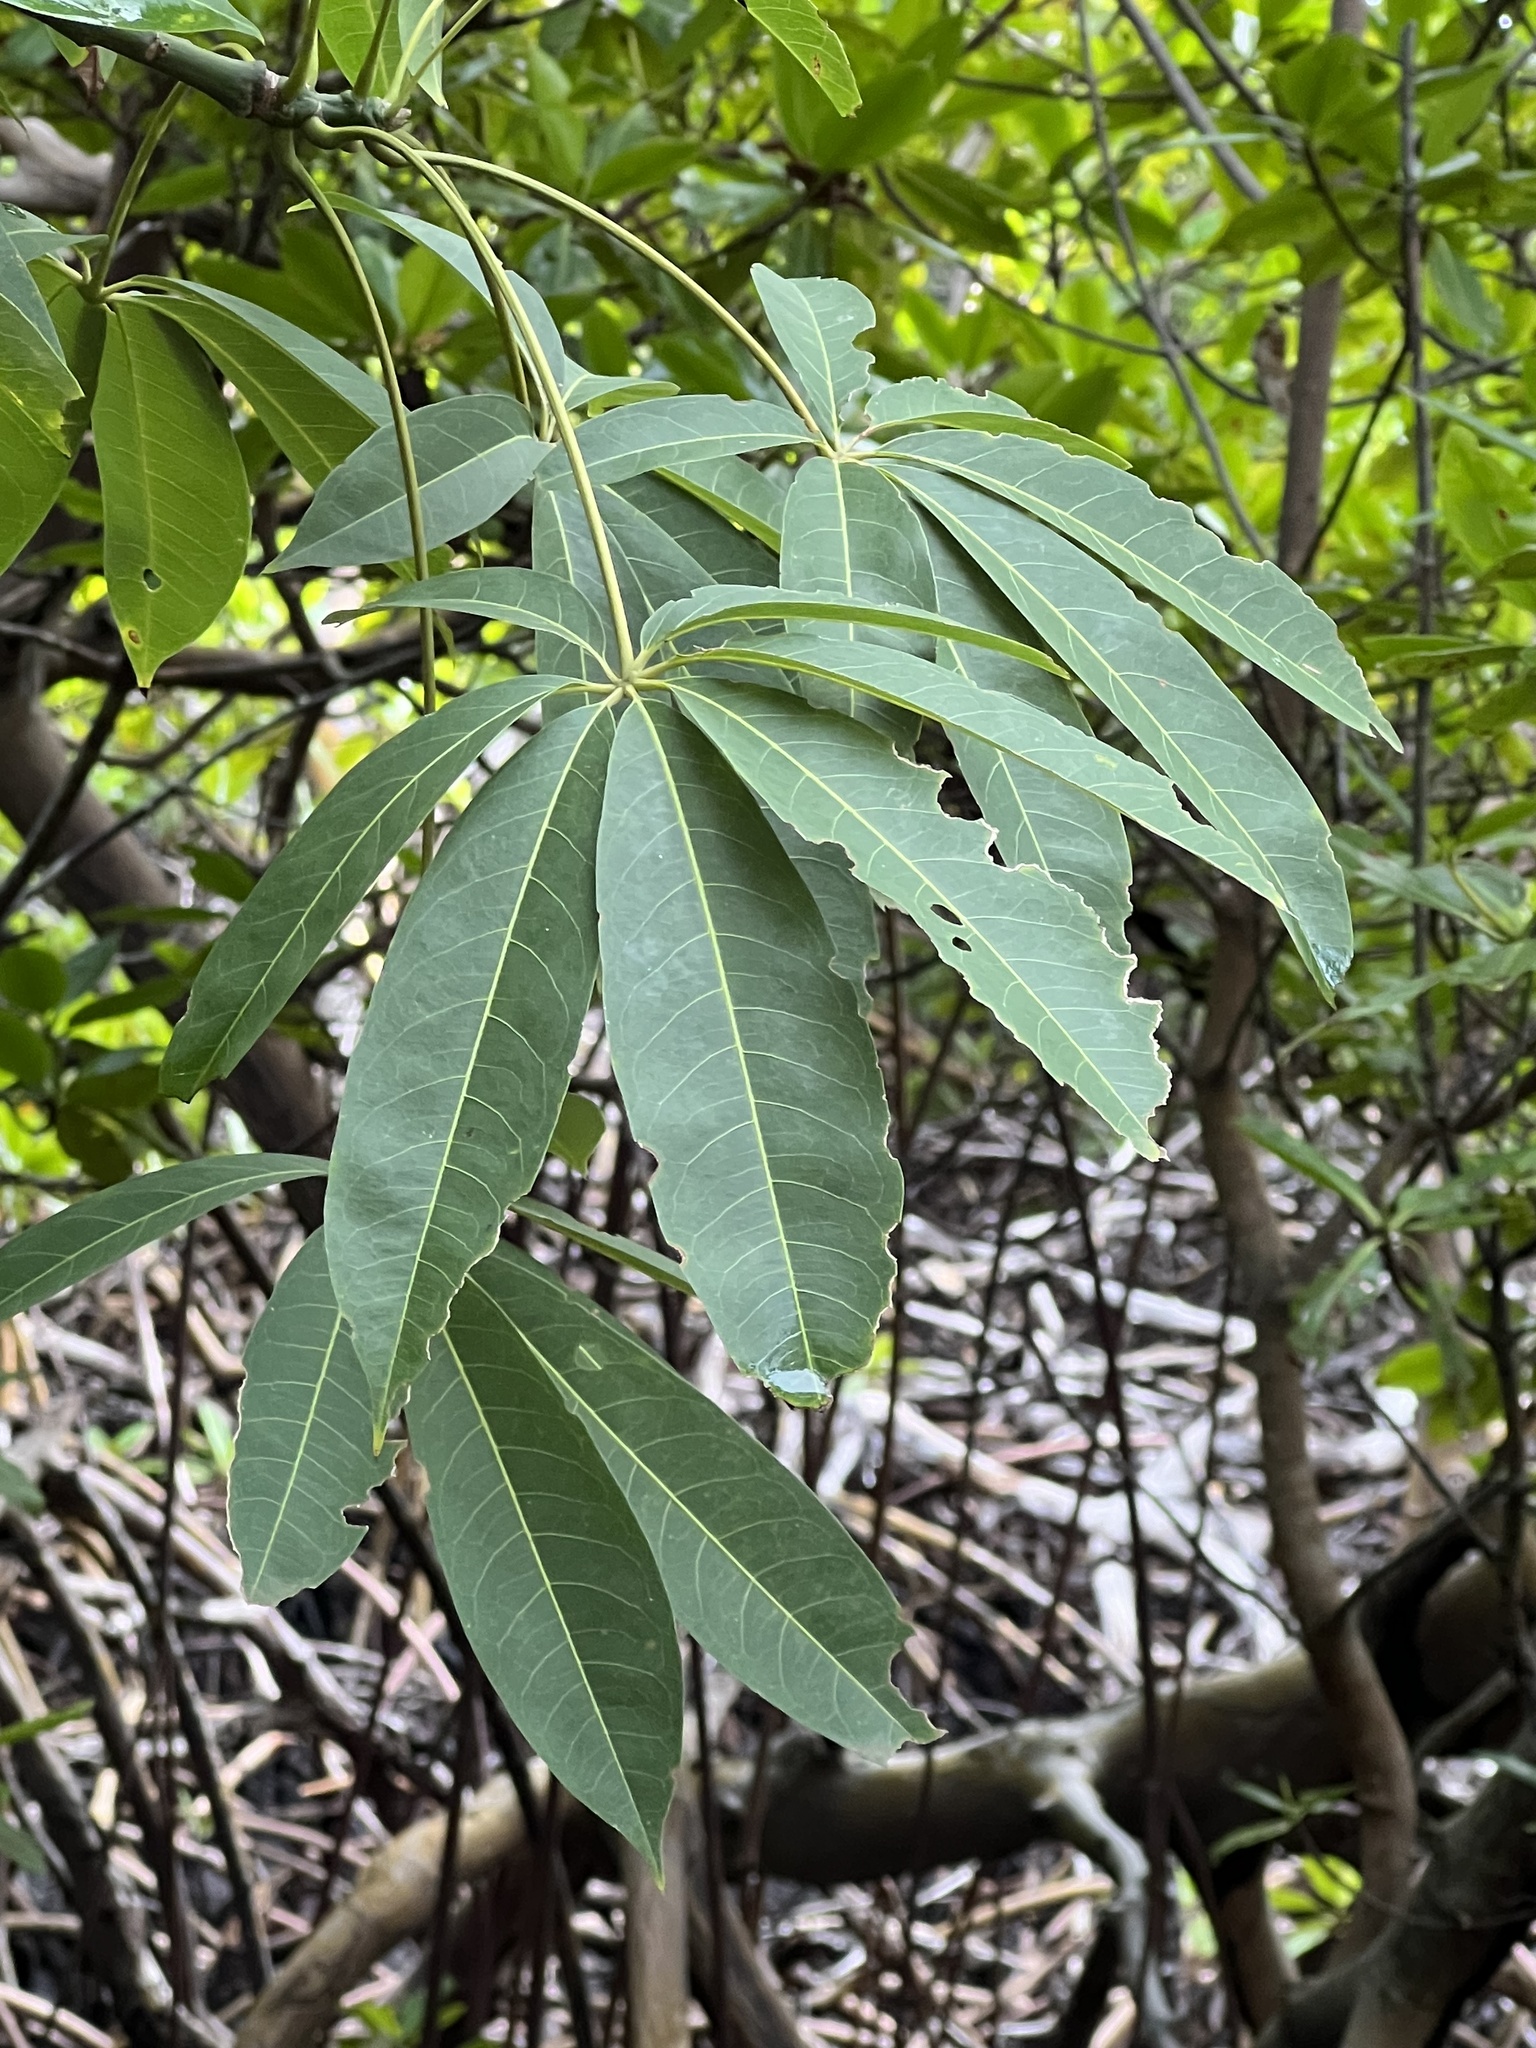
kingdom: Plantae
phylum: Tracheophyta
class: Magnoliopsida
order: Malvales
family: Malvaceae
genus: Ceiba
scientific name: Ceiba pentandra
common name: Kapok
